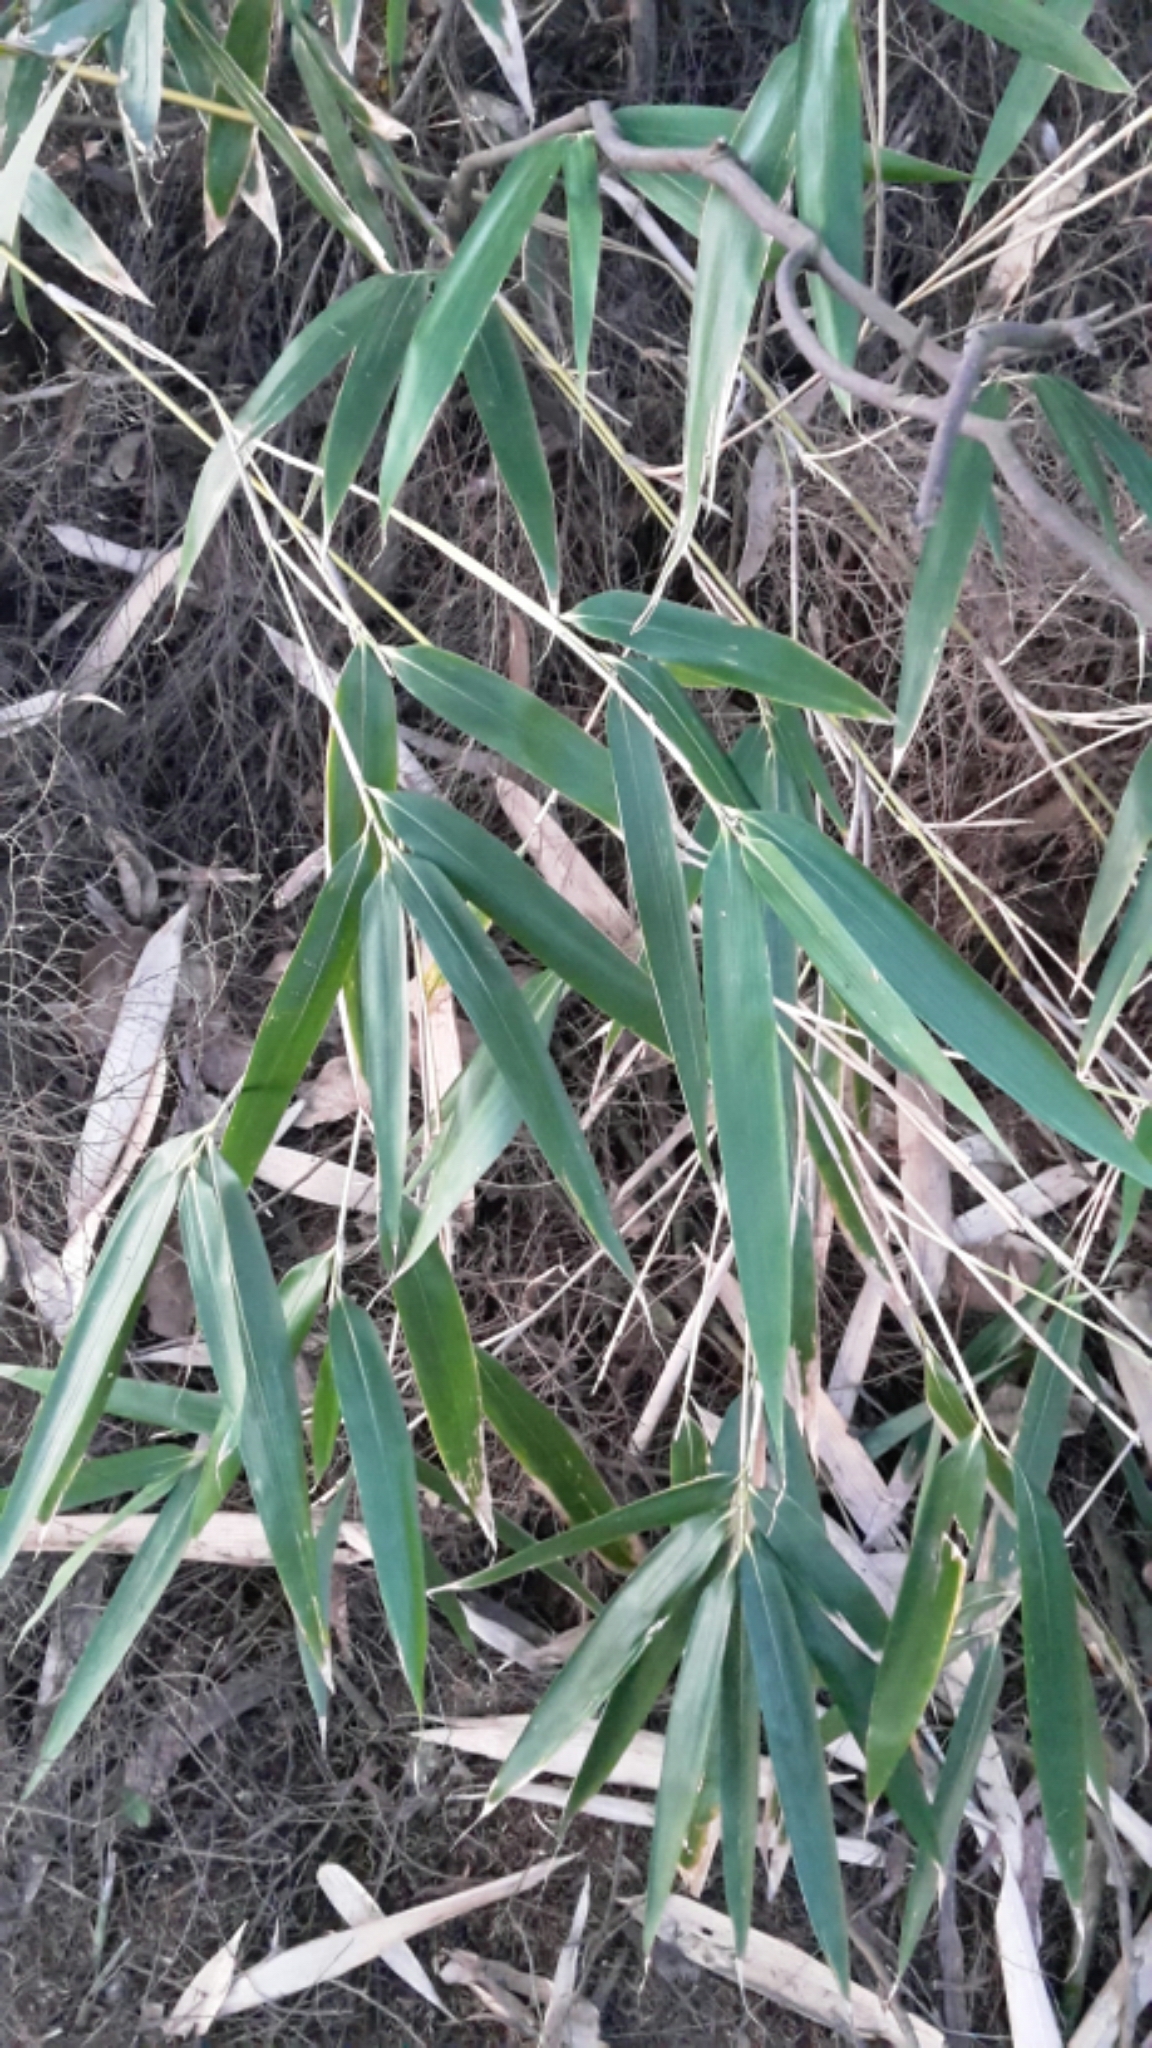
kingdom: Plantae
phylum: Tracheophyta
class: Liliopsida
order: Poales
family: Poaceae
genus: Pseudosasa
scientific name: Pseudosasa japonica
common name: Arrow bamboo
